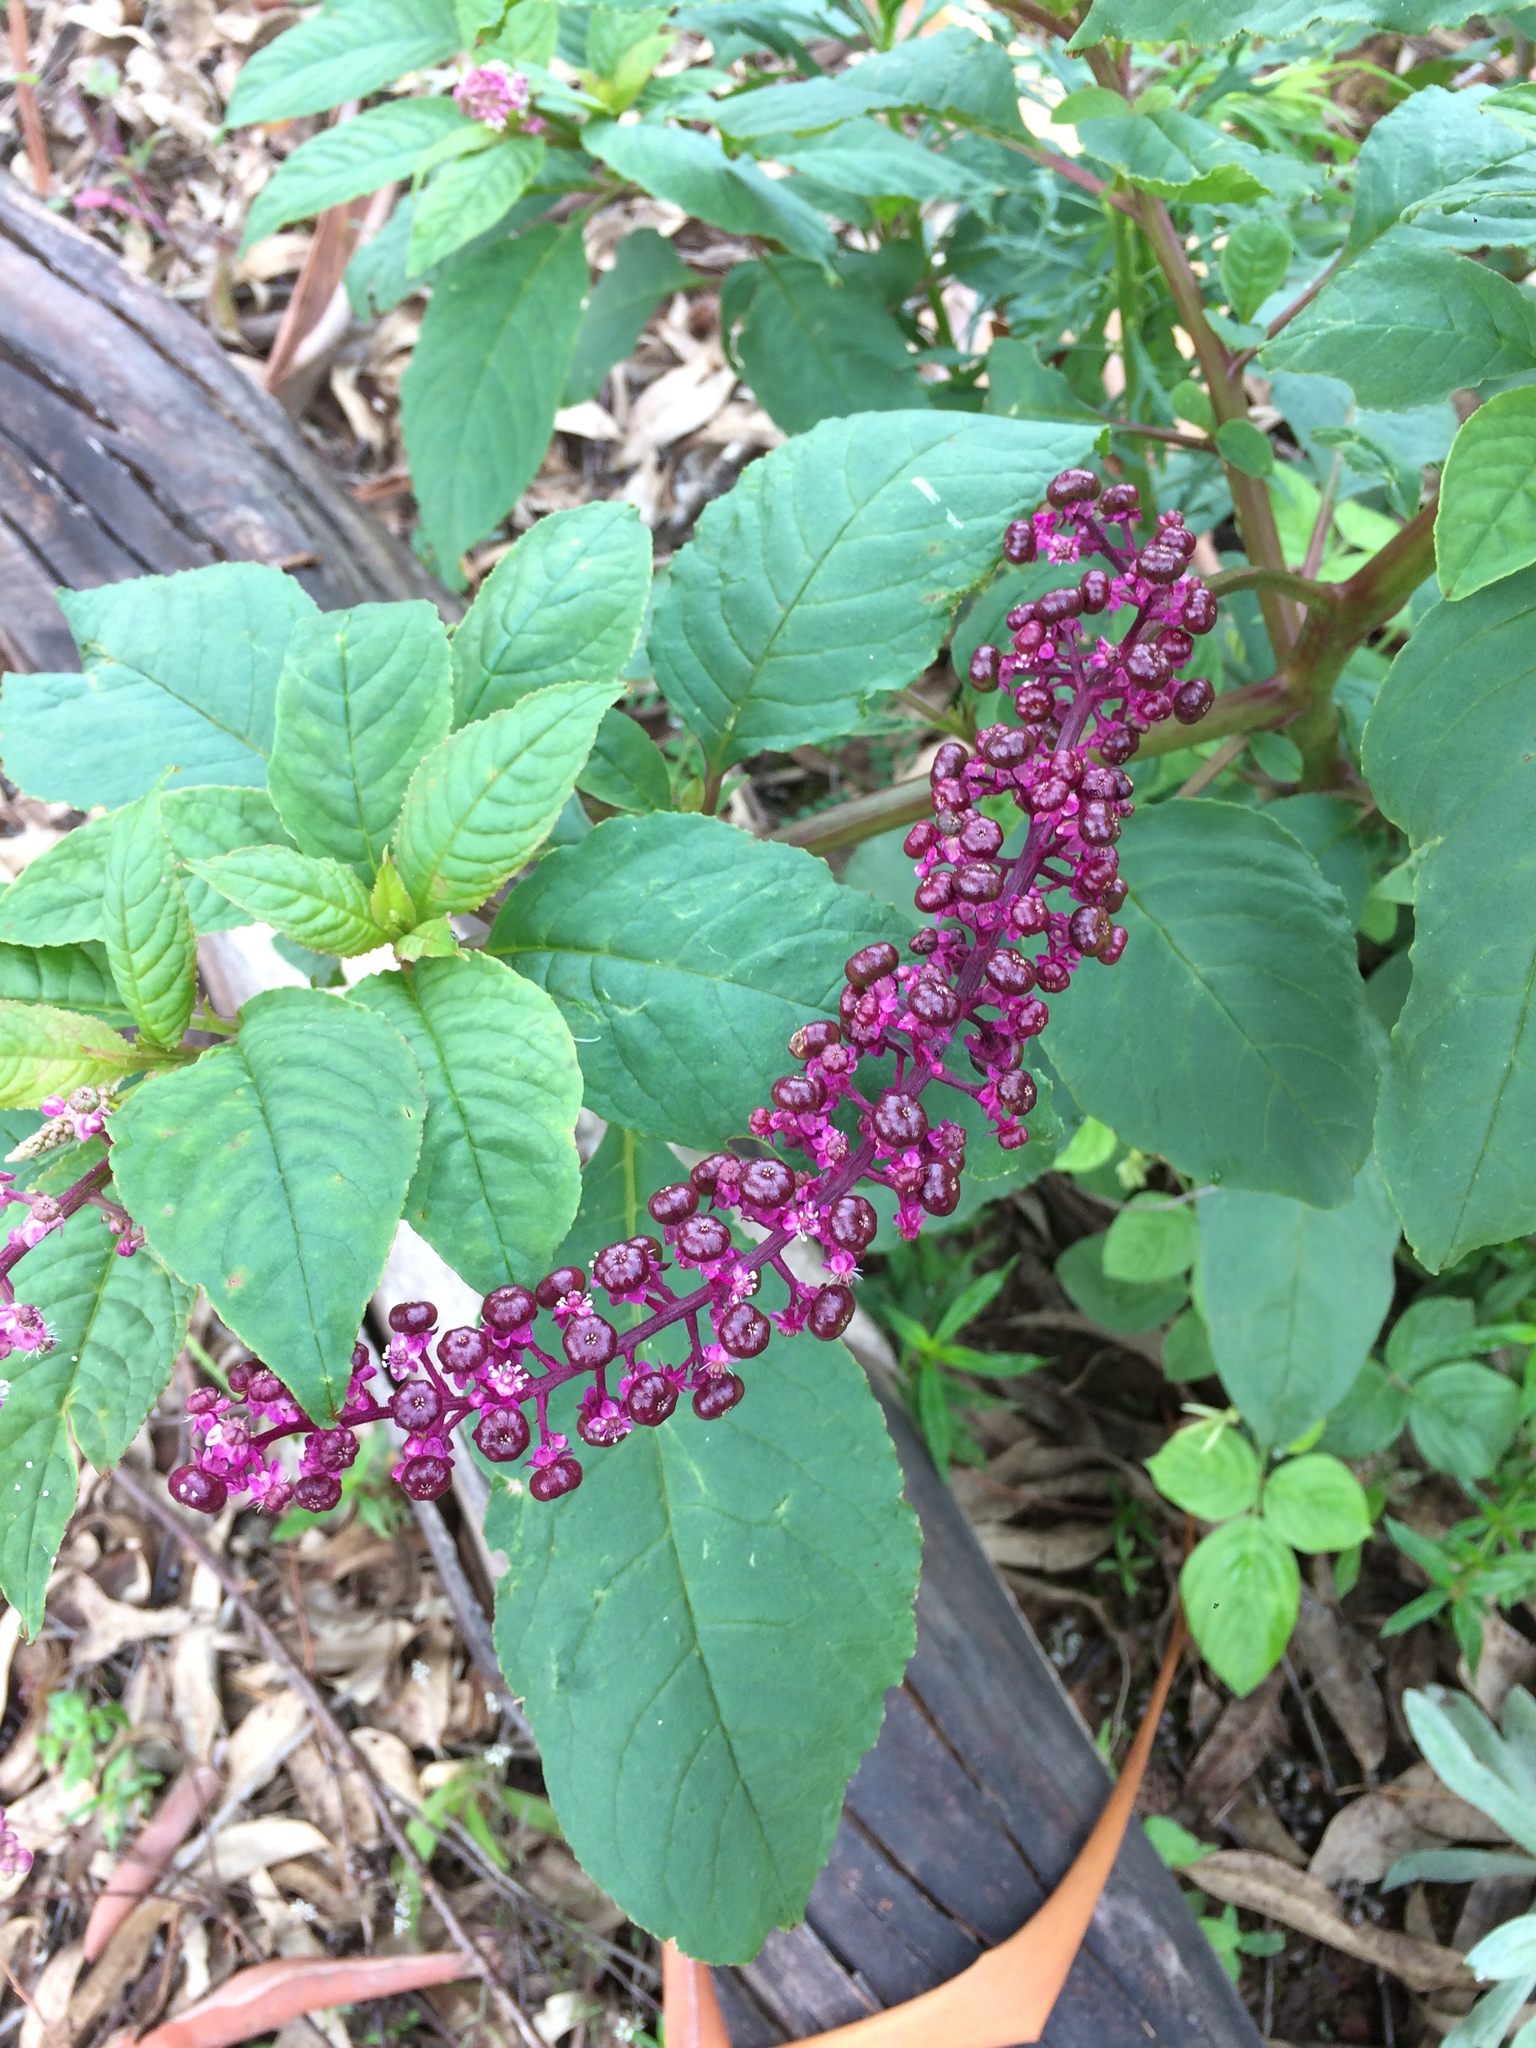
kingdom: Plantae
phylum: Tracheophyta
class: Magnoliopsida
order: Caryophyllales
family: Phytolaccaceae
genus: Phytolacca
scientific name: Phytolacca thyrsiflora
